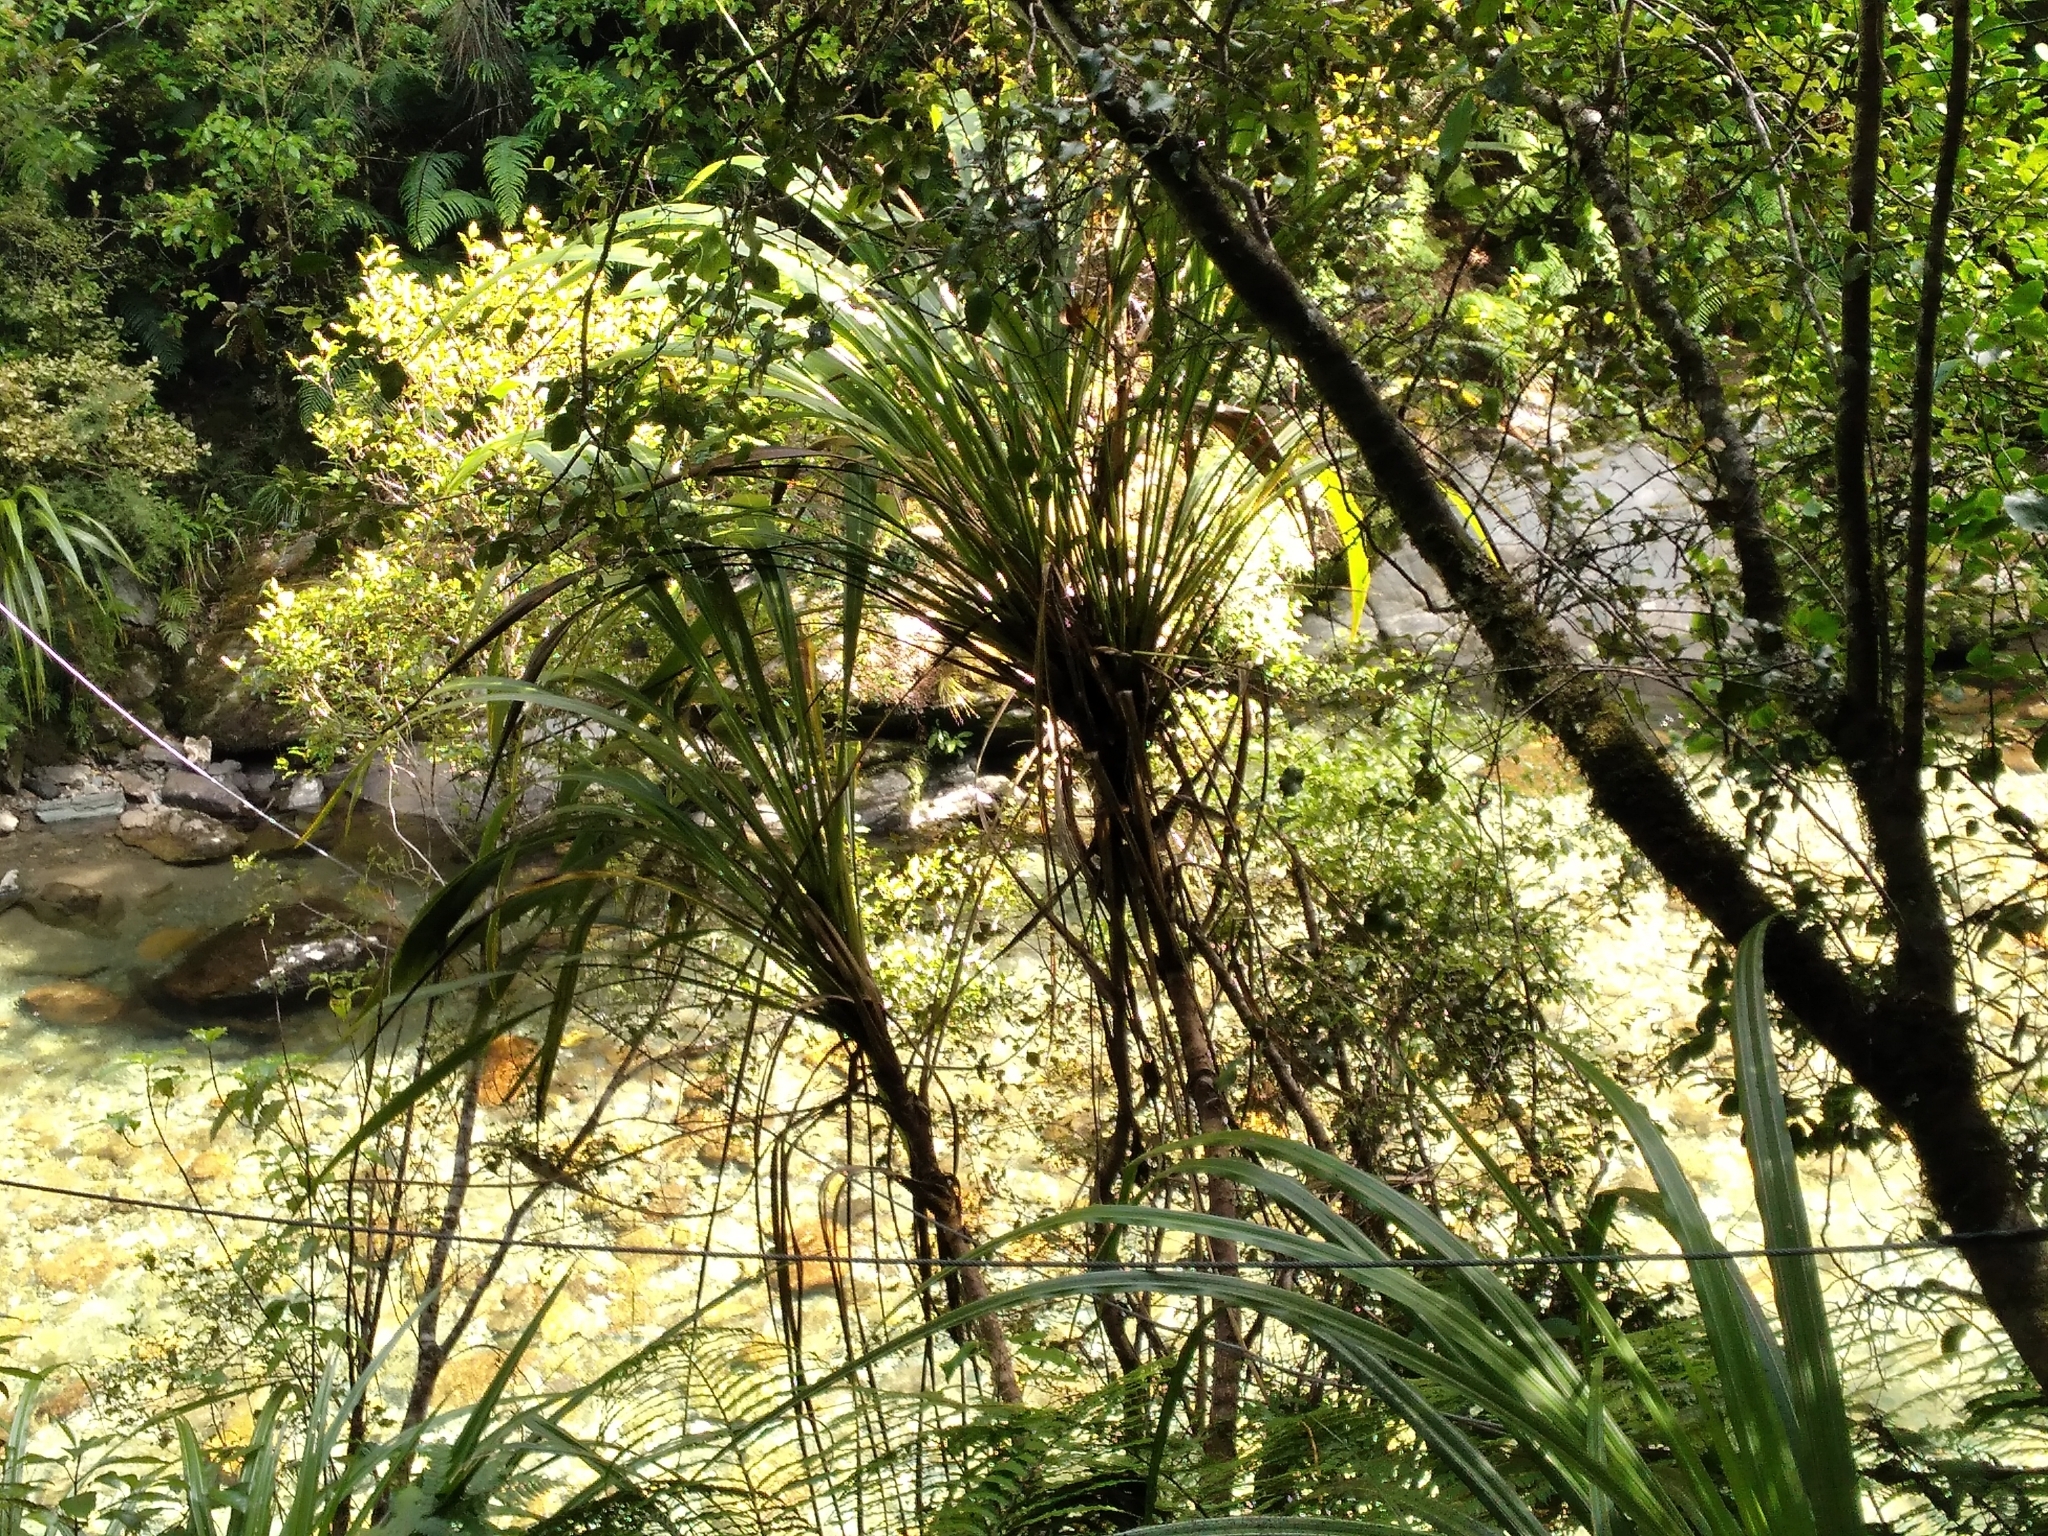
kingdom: Plantae
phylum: Tracheophyta
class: Liliopsida
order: Asparagales
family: Asparagaceae
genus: Cordyline
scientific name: Cordyline banksii
